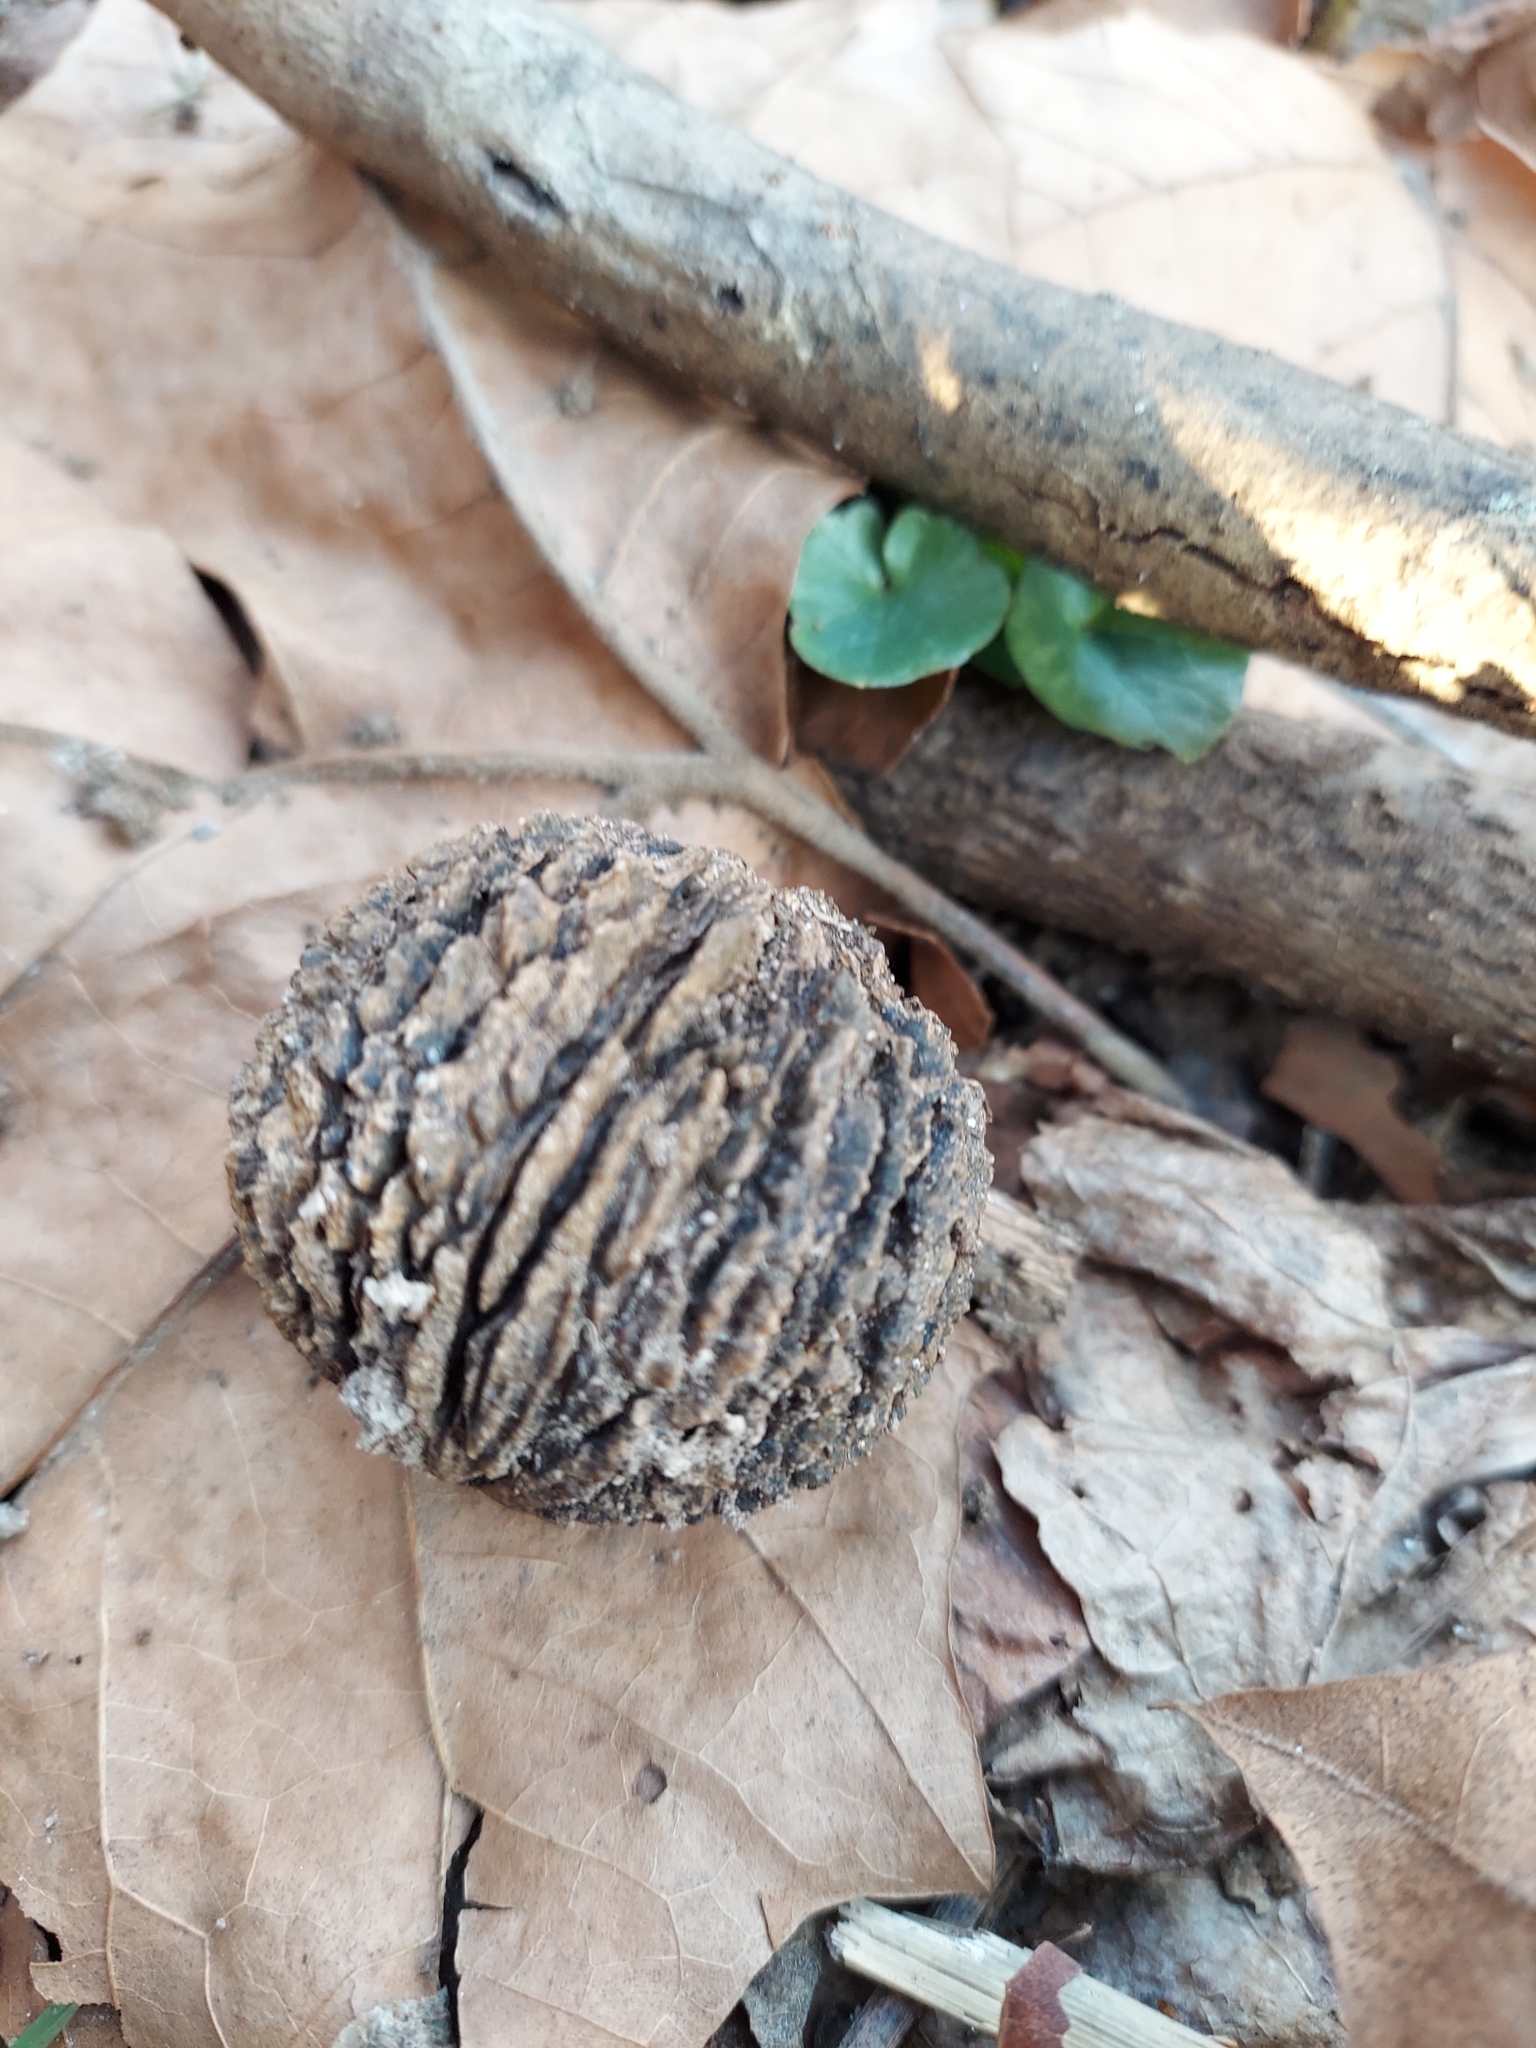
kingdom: Plantae
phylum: Tracheophyta
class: Magnoliopsida
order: Fagales
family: Juglandaceae
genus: Juglans
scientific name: Juglans nigra
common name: Black walnut
